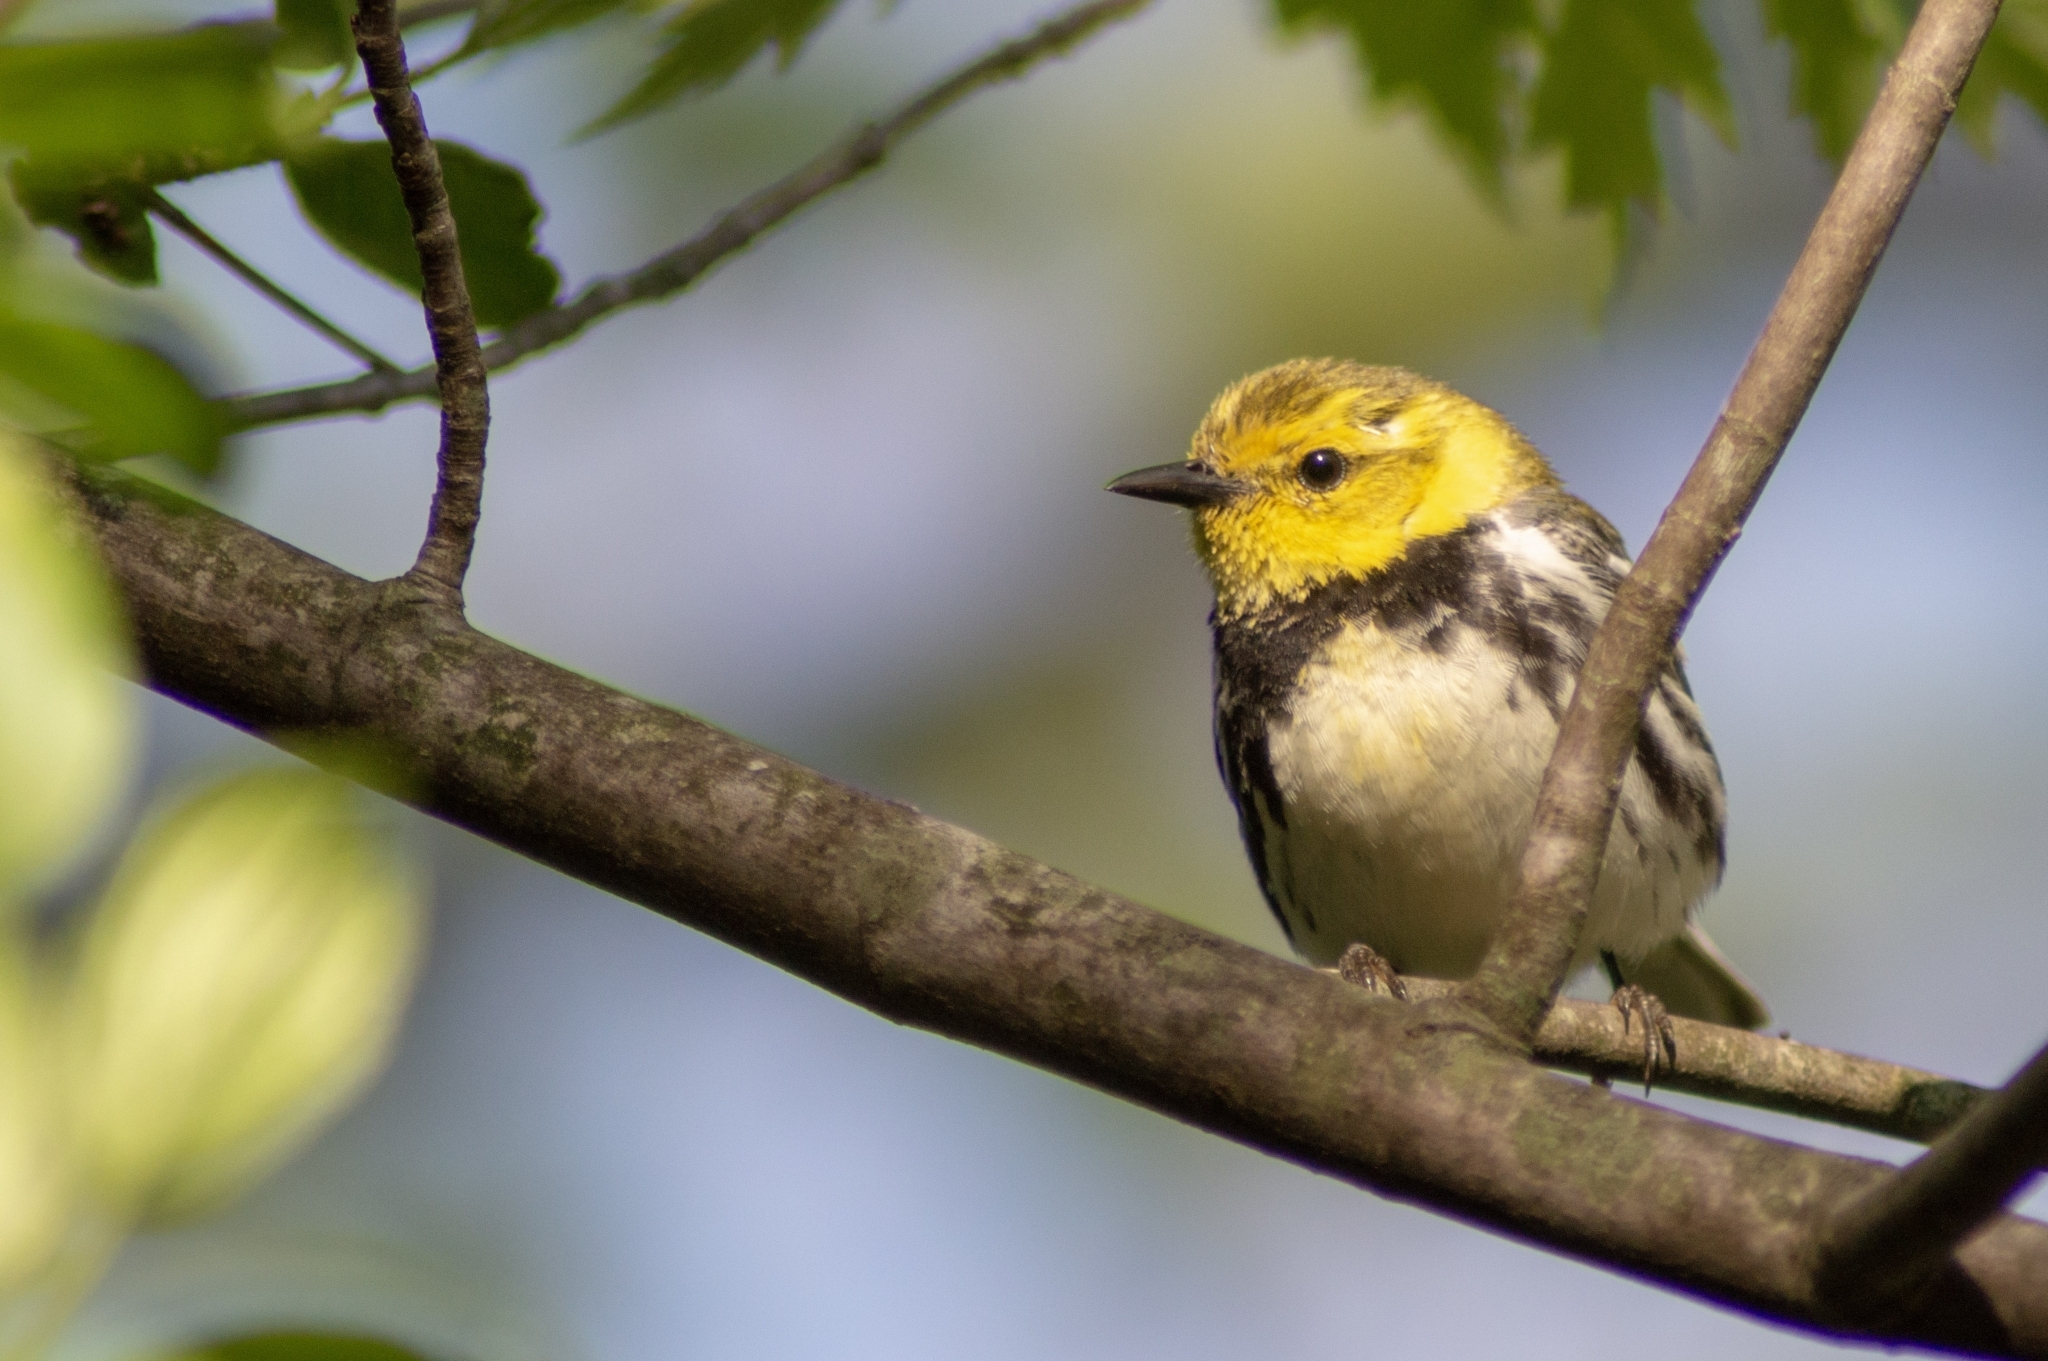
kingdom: Animalia
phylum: Chordata
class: Aves
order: Passeriformes
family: Parulidae
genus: Setophaga
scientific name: Setophaga virens
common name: Black-throated green warbler
